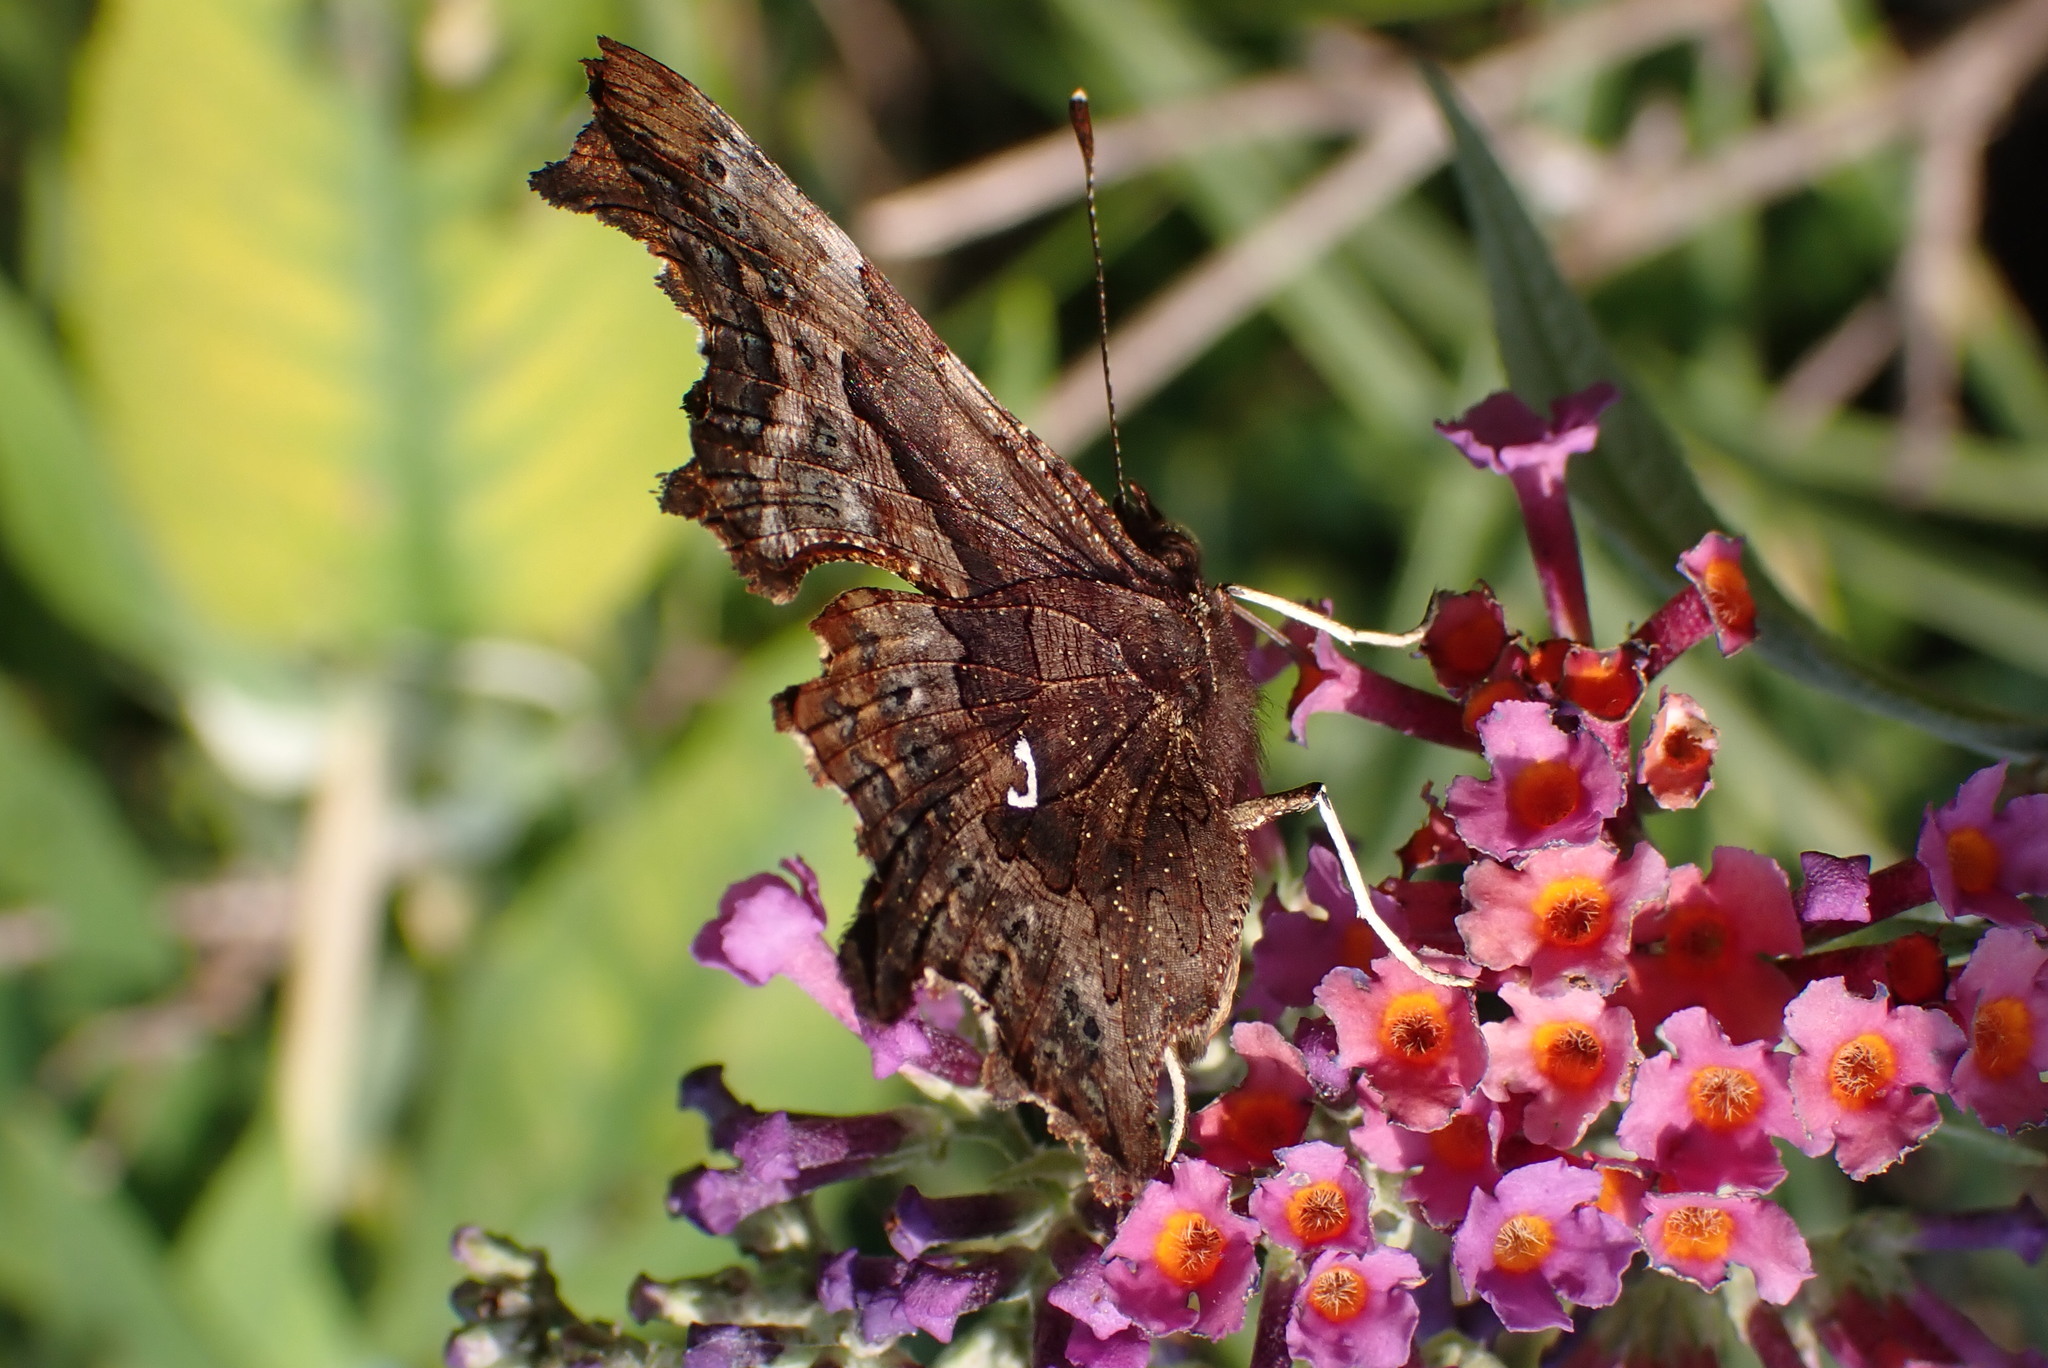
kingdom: Animalia
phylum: Arthropoda
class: Insecta
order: Lepidoptera
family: Nymphalidae
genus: Polygonia
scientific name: Polygonia c-album
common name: Comma
